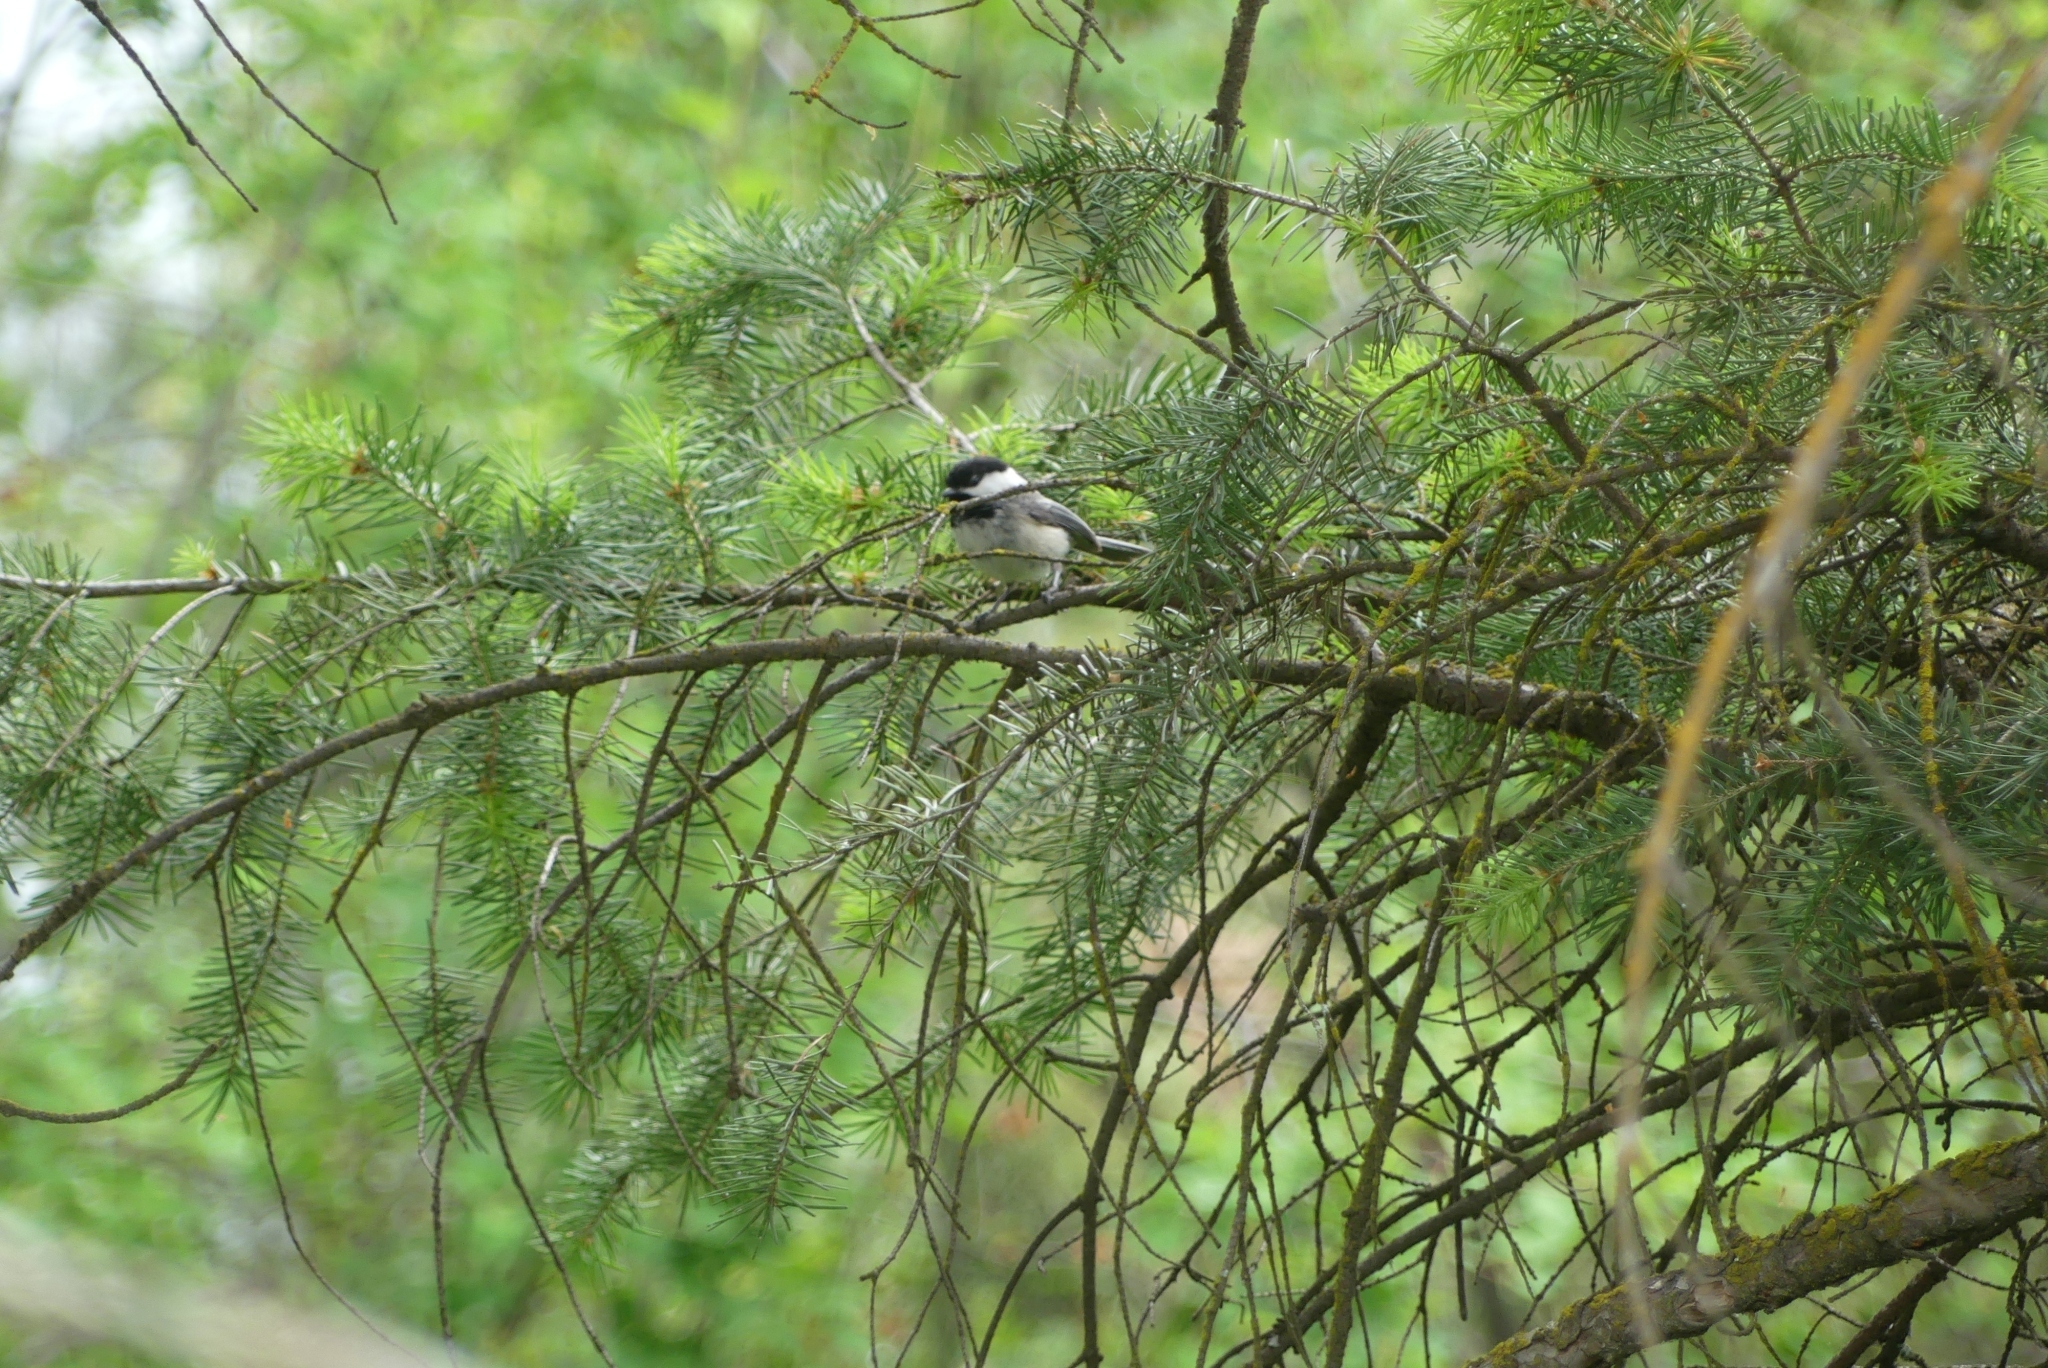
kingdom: Animalia
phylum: Chordata
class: Aves
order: Passeriformes
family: Paridae
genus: Poecile
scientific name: Poecile atricapillus
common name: Black-capped chickadee
